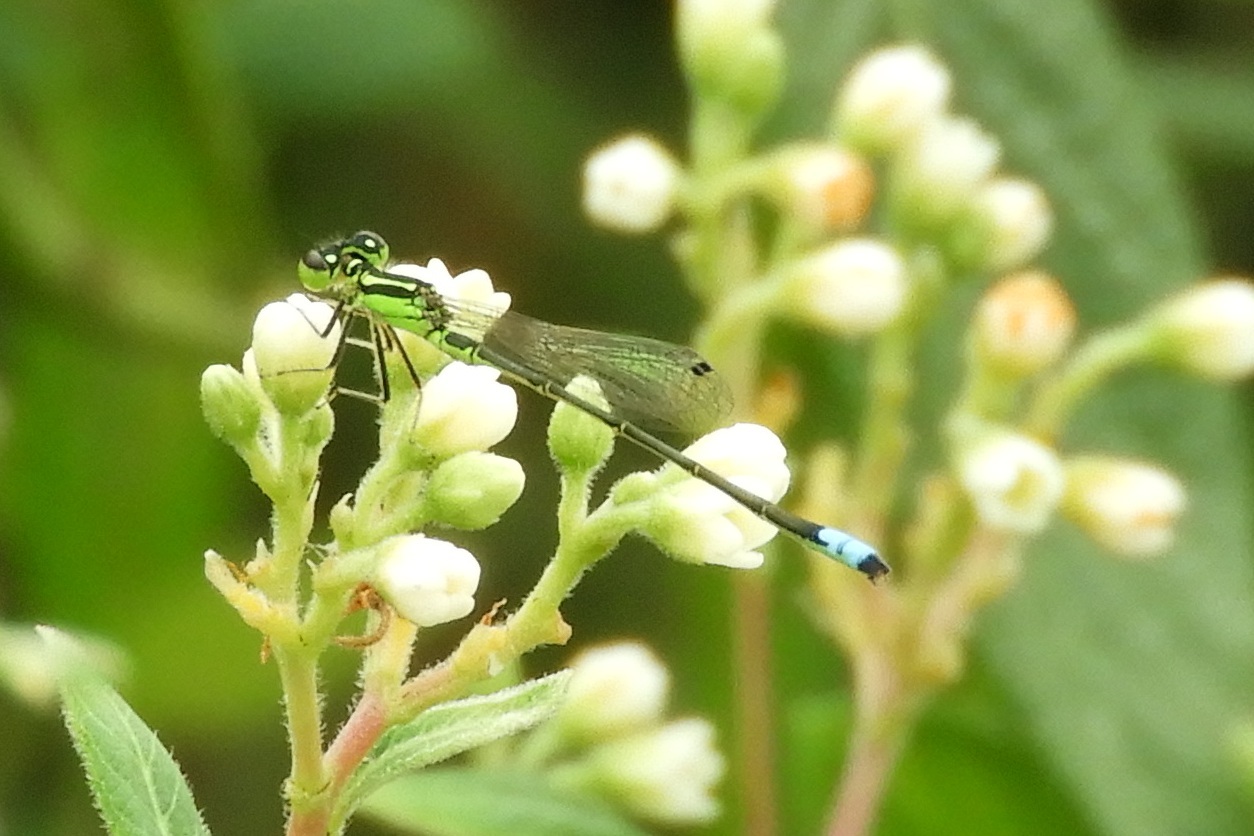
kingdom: Animalia
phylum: Arthropoda
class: Insecta
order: Odonata
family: Coenagrionidae
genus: Ischnura
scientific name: Ischnura verticalis
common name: Eastern forktail
